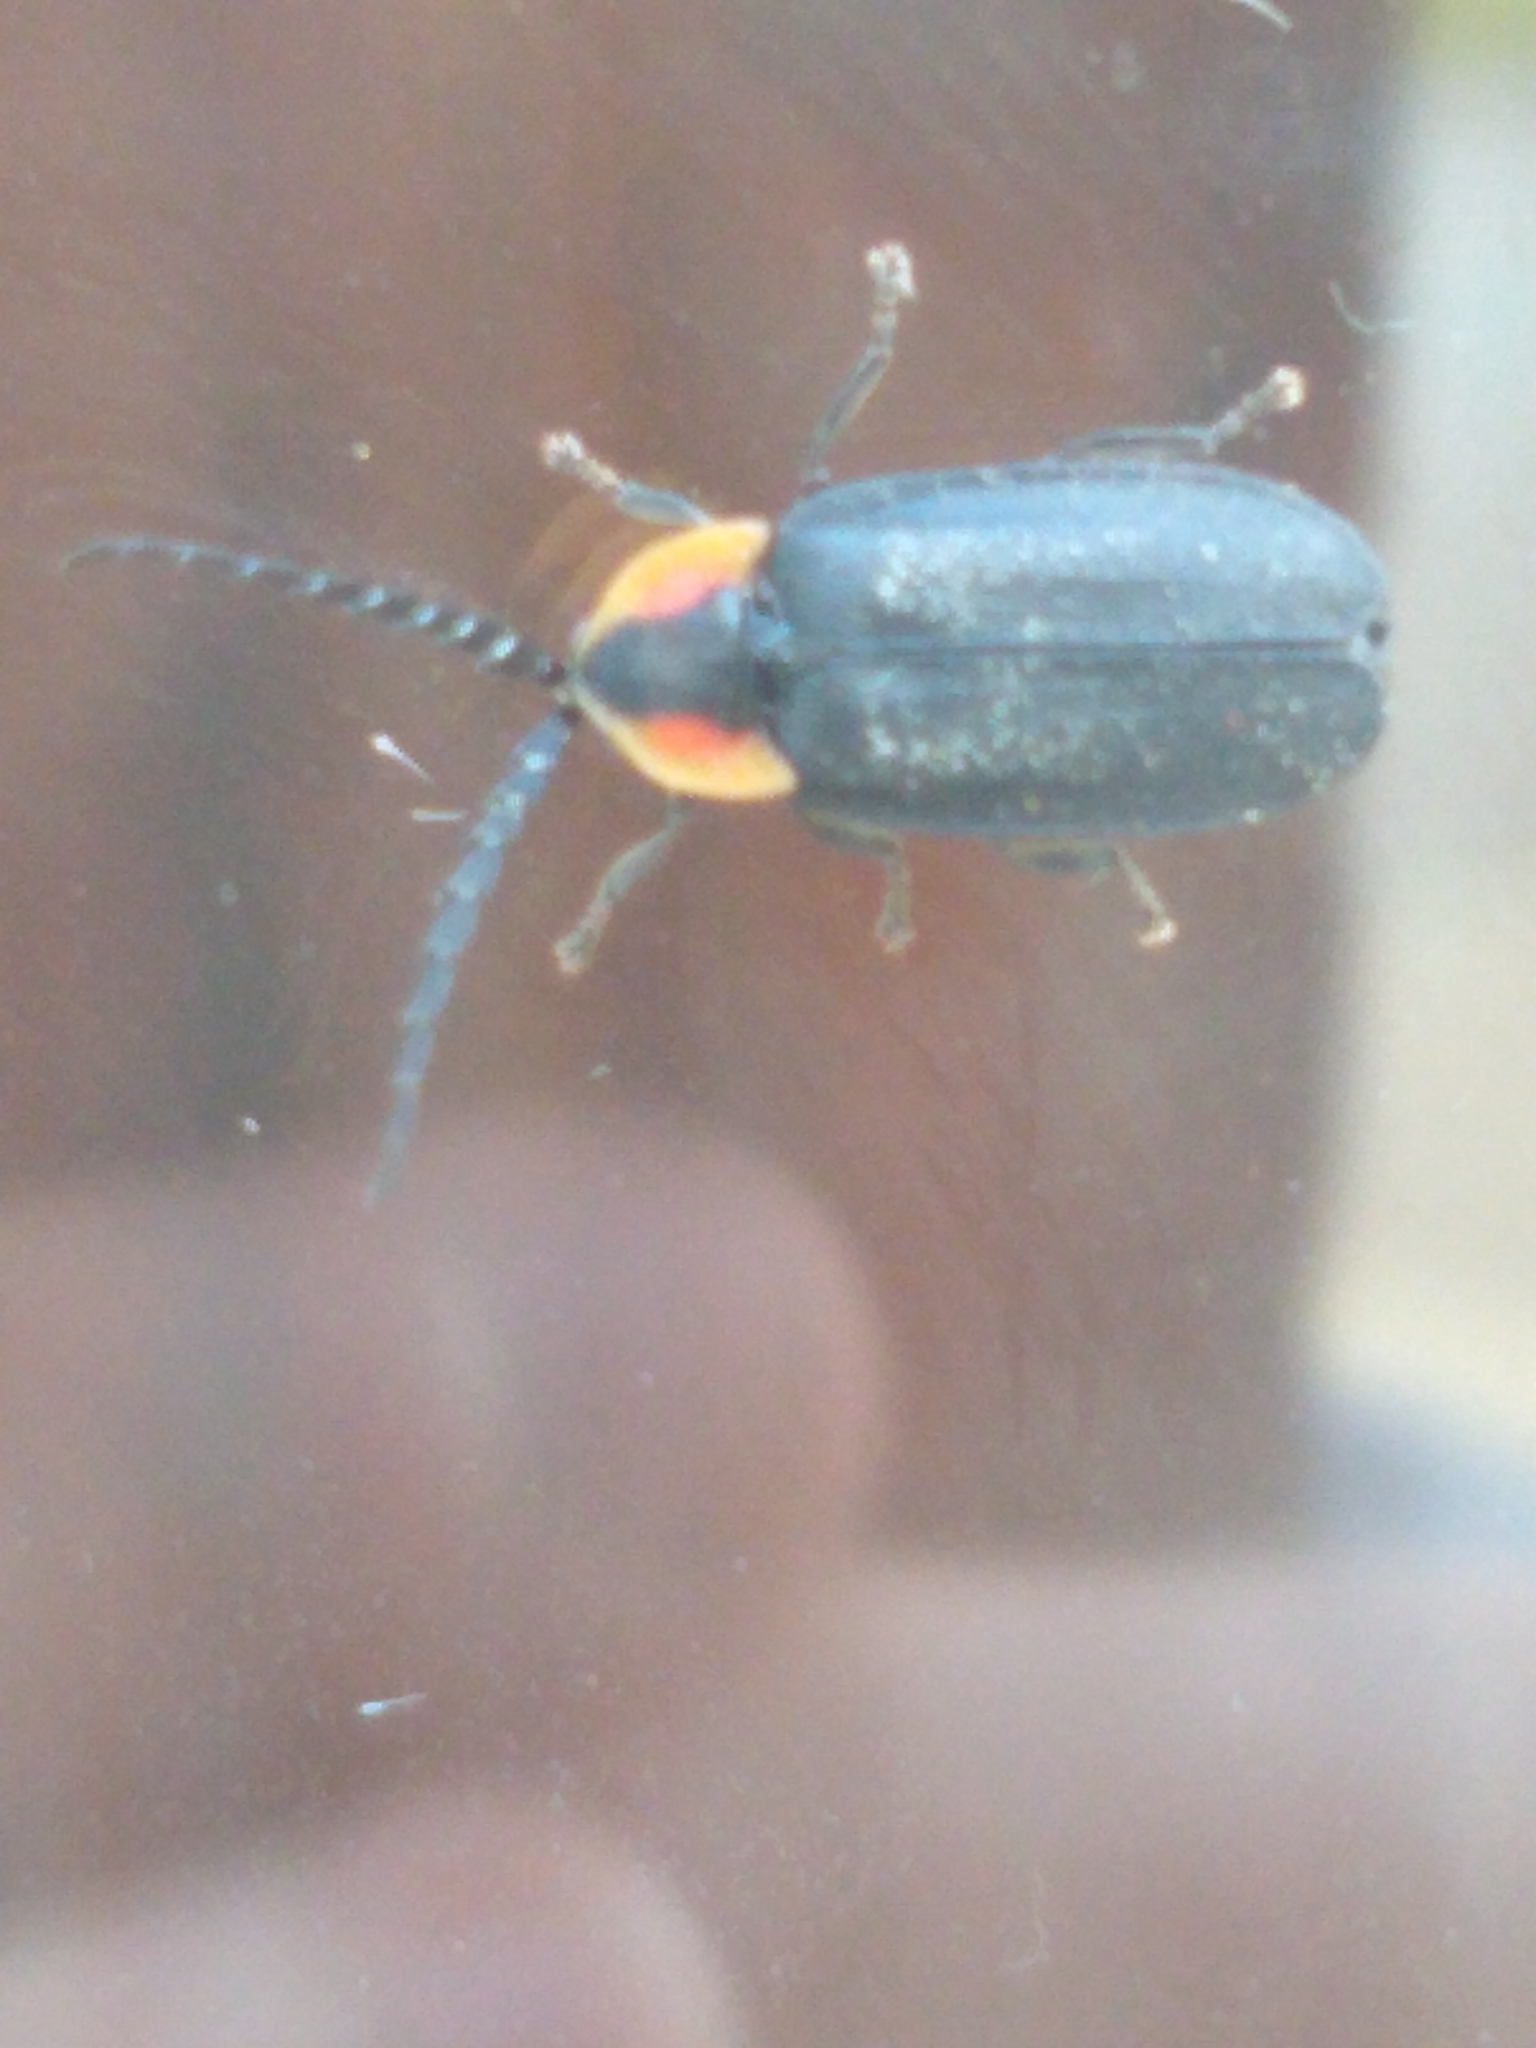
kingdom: Animalia
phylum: Arthropoda
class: Insecta
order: Coleoptera
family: Lampyridae
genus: Lucidota
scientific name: Lucidota atra
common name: Black firefly
